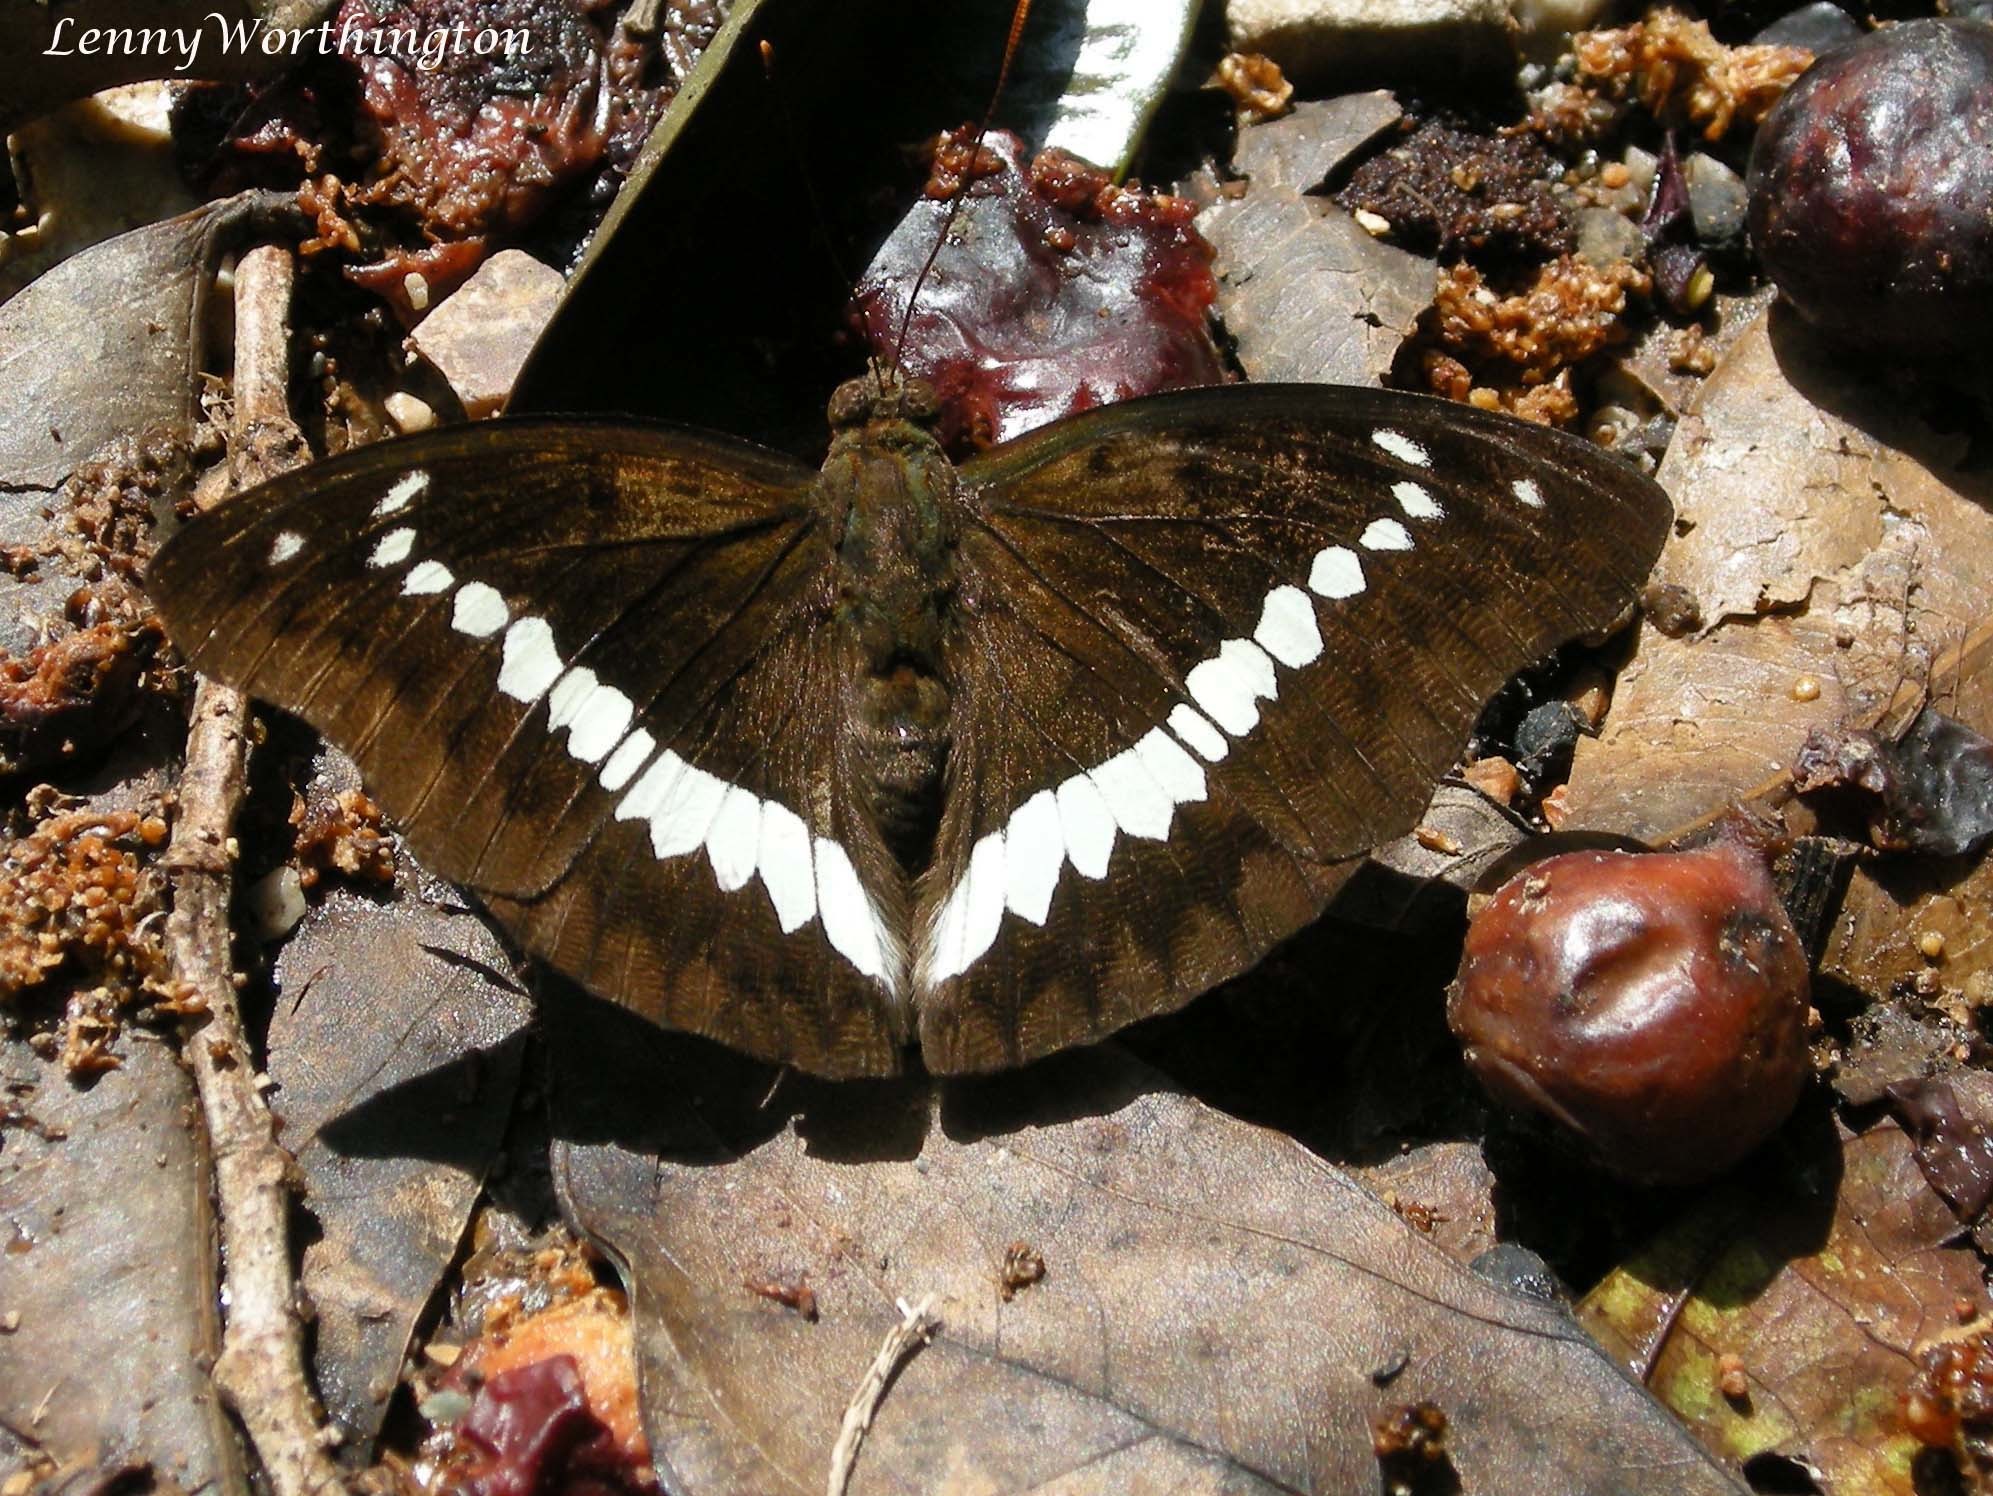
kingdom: Animalia
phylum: Arthropoda
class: Insecta
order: Lepidoptera
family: Nymphalidae
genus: Euthalia
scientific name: Euthalia Bassarona teuta
